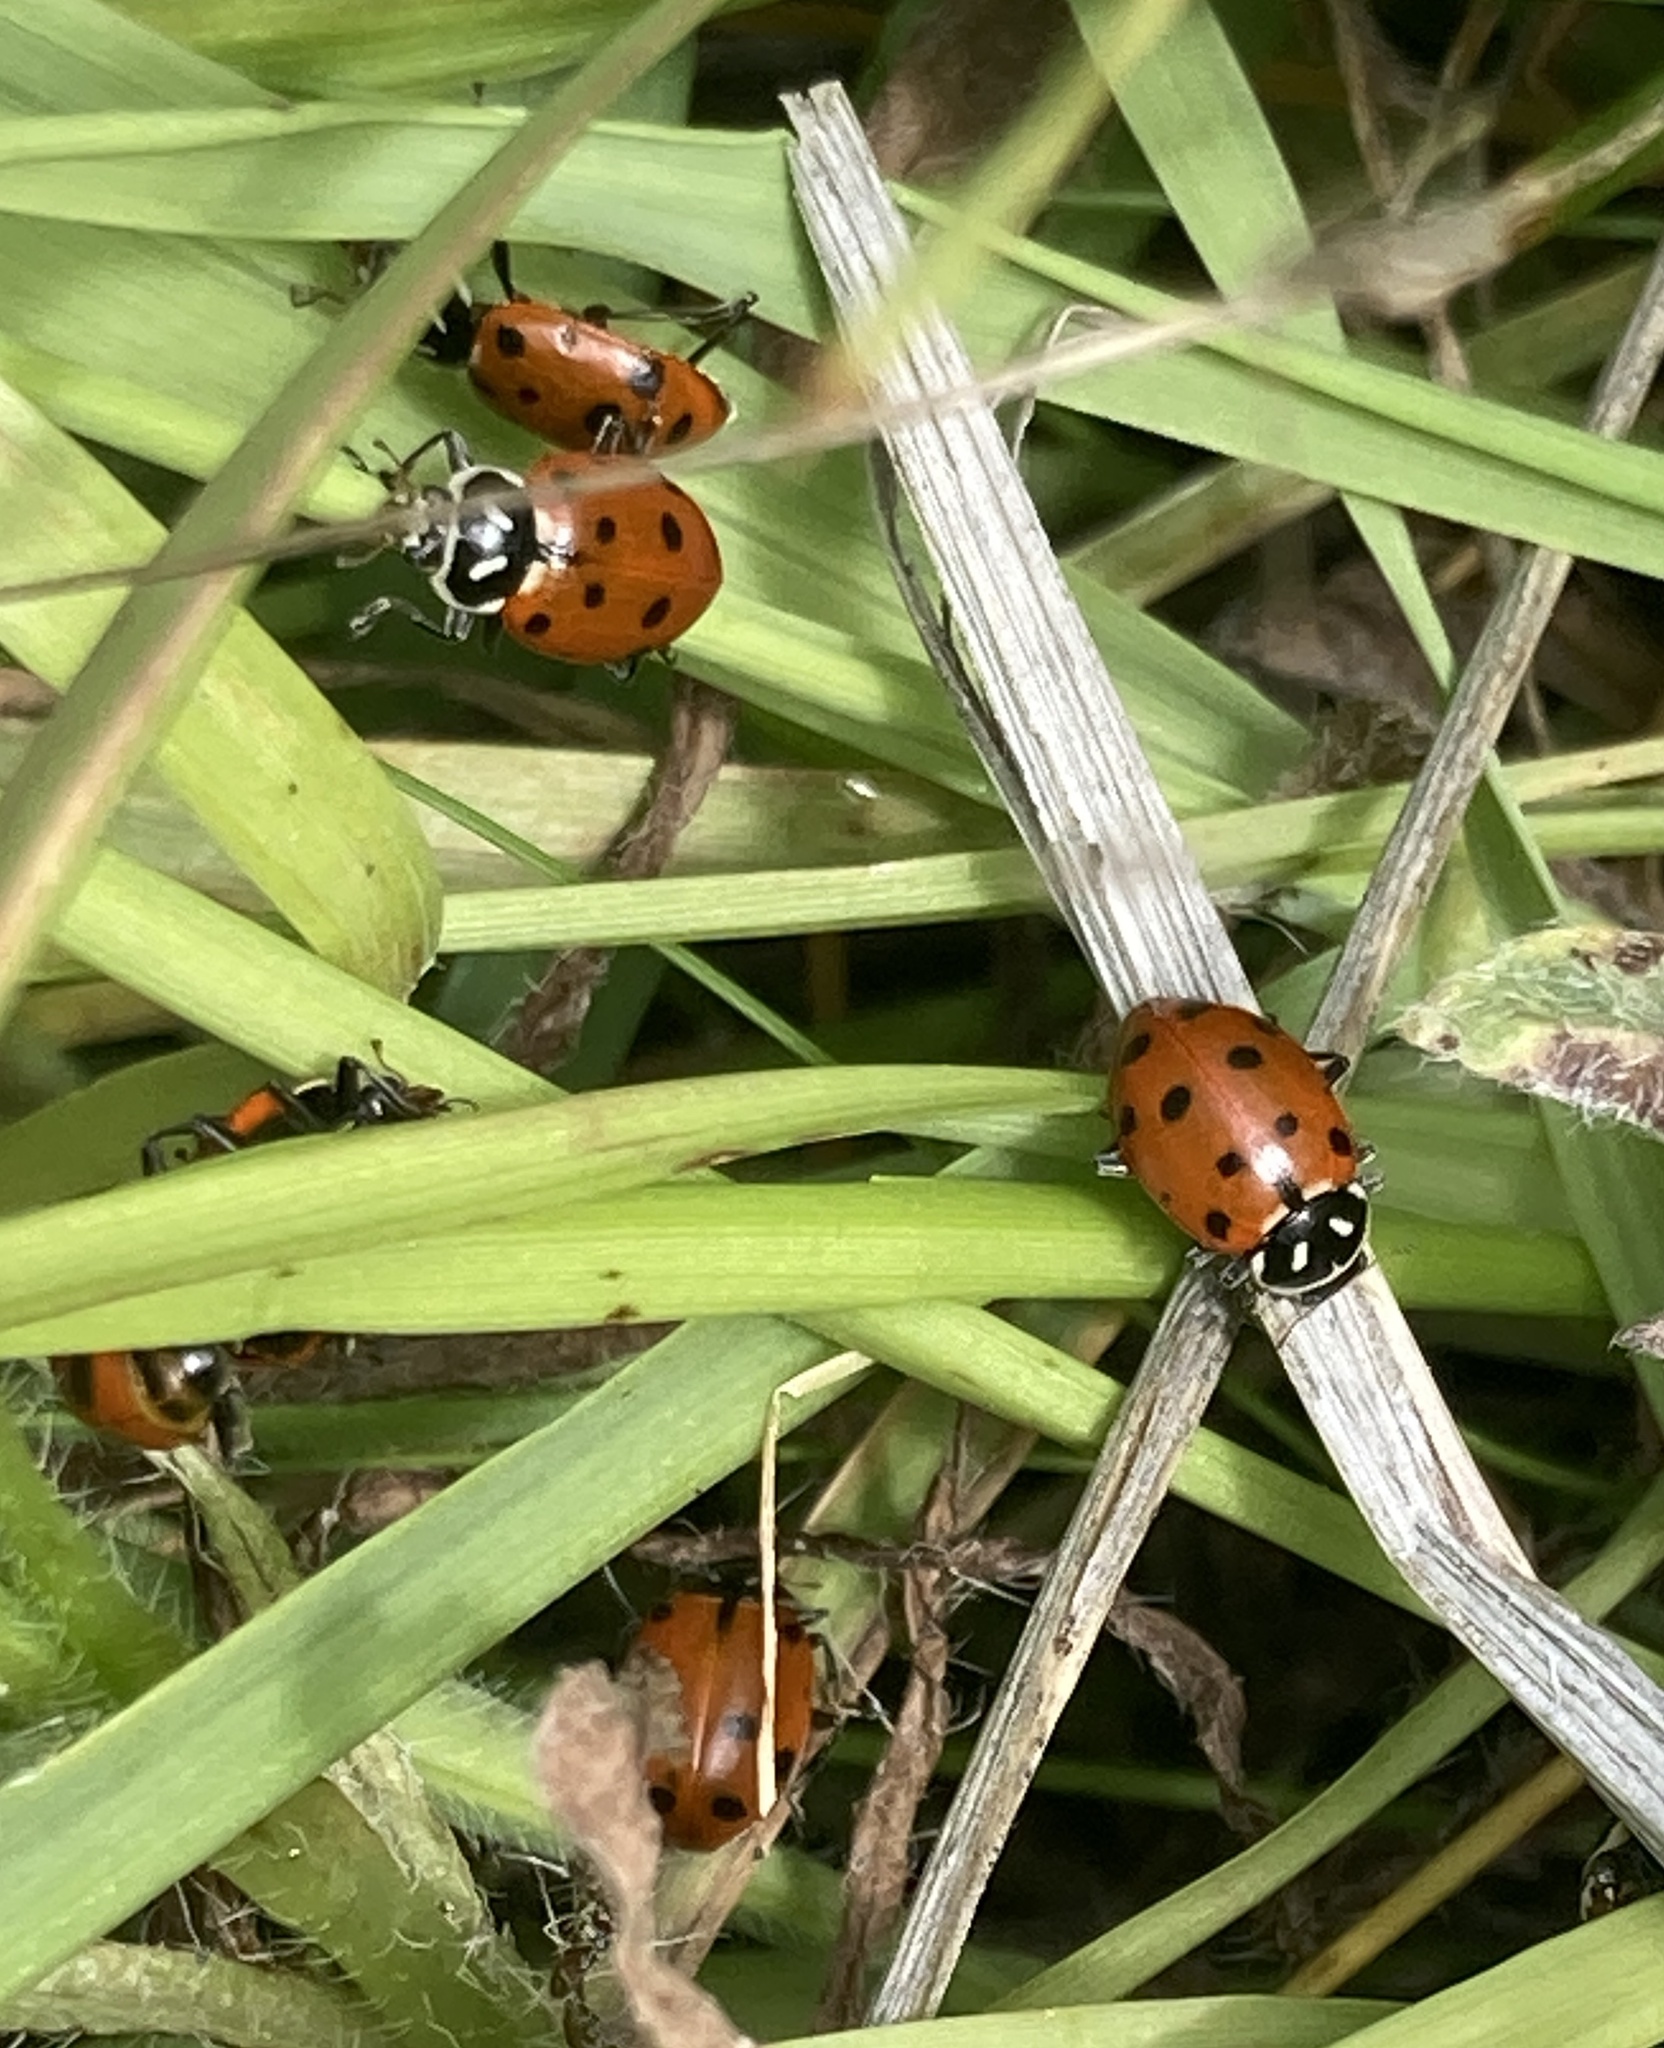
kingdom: Animalia
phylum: Arthropoda
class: Insecta
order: Coleoptera
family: Coccinellidae
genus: Hippodamia
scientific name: Hippodamia convergens
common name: Convergent lady beetle
